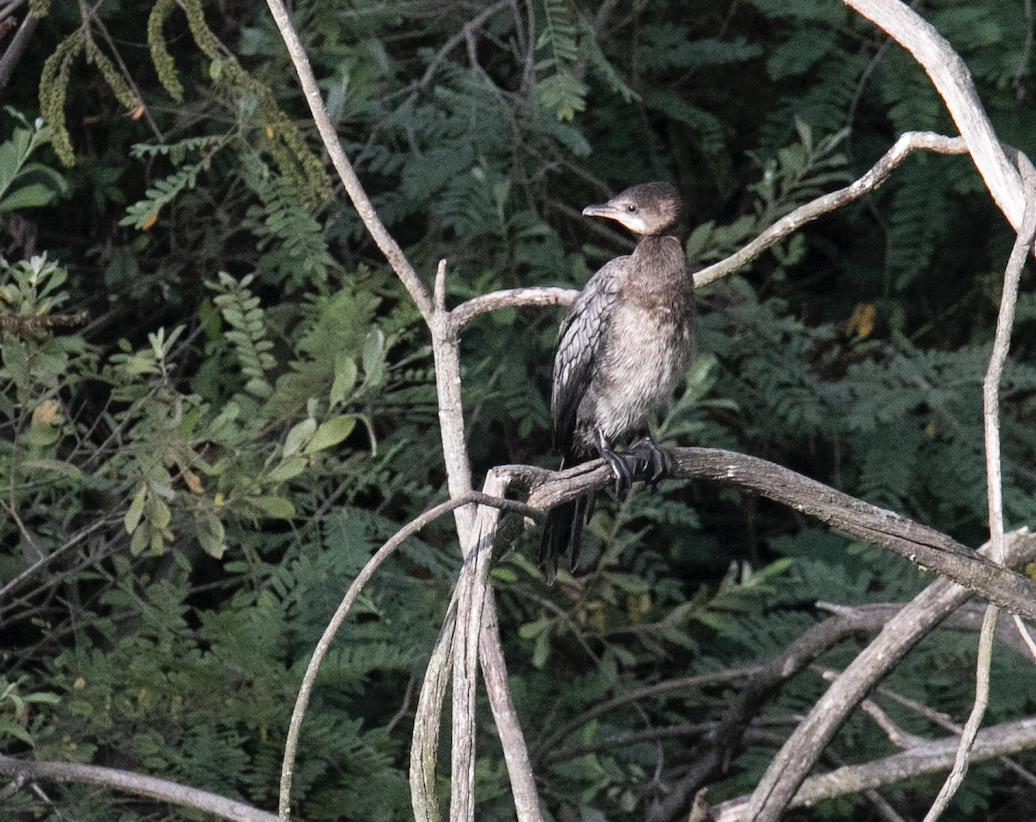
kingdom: Animalia
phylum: Chordata
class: Aves
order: Suliformes
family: Phalacrocoracidae
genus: Microcarbo
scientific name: Microcarbo pygmaeus
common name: Pygmy cormorant
